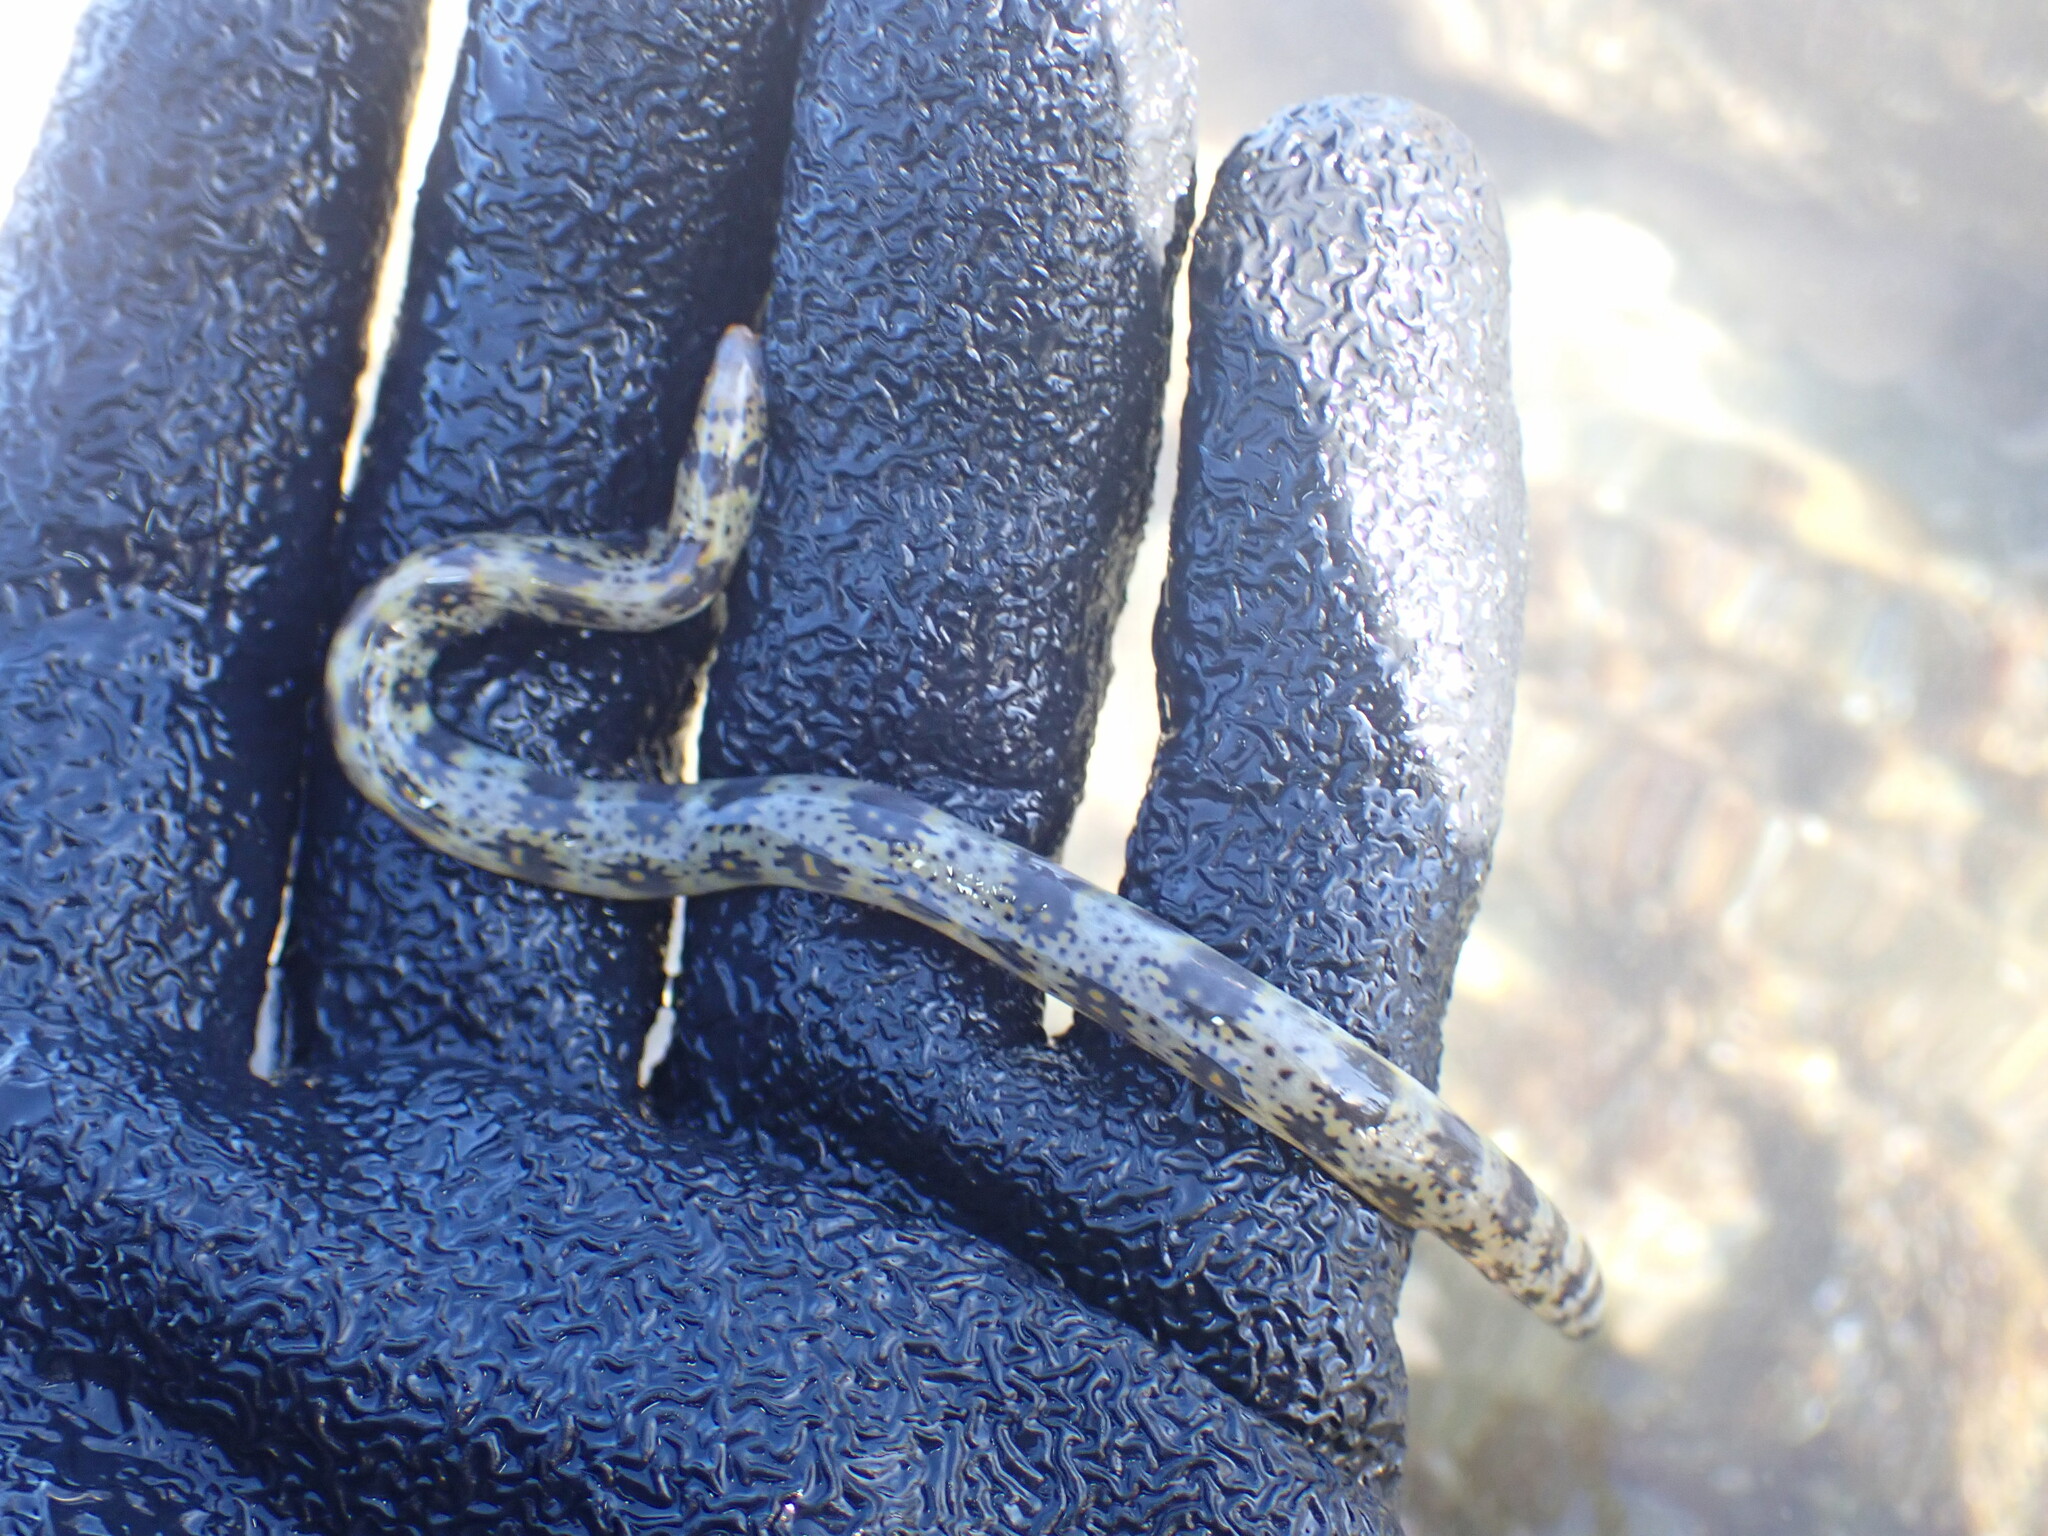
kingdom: Animalia
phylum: Chordata
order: Anguilliformes
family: Muraenidae
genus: Echidna
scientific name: Echidna nebulosa
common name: Snowflake moray
